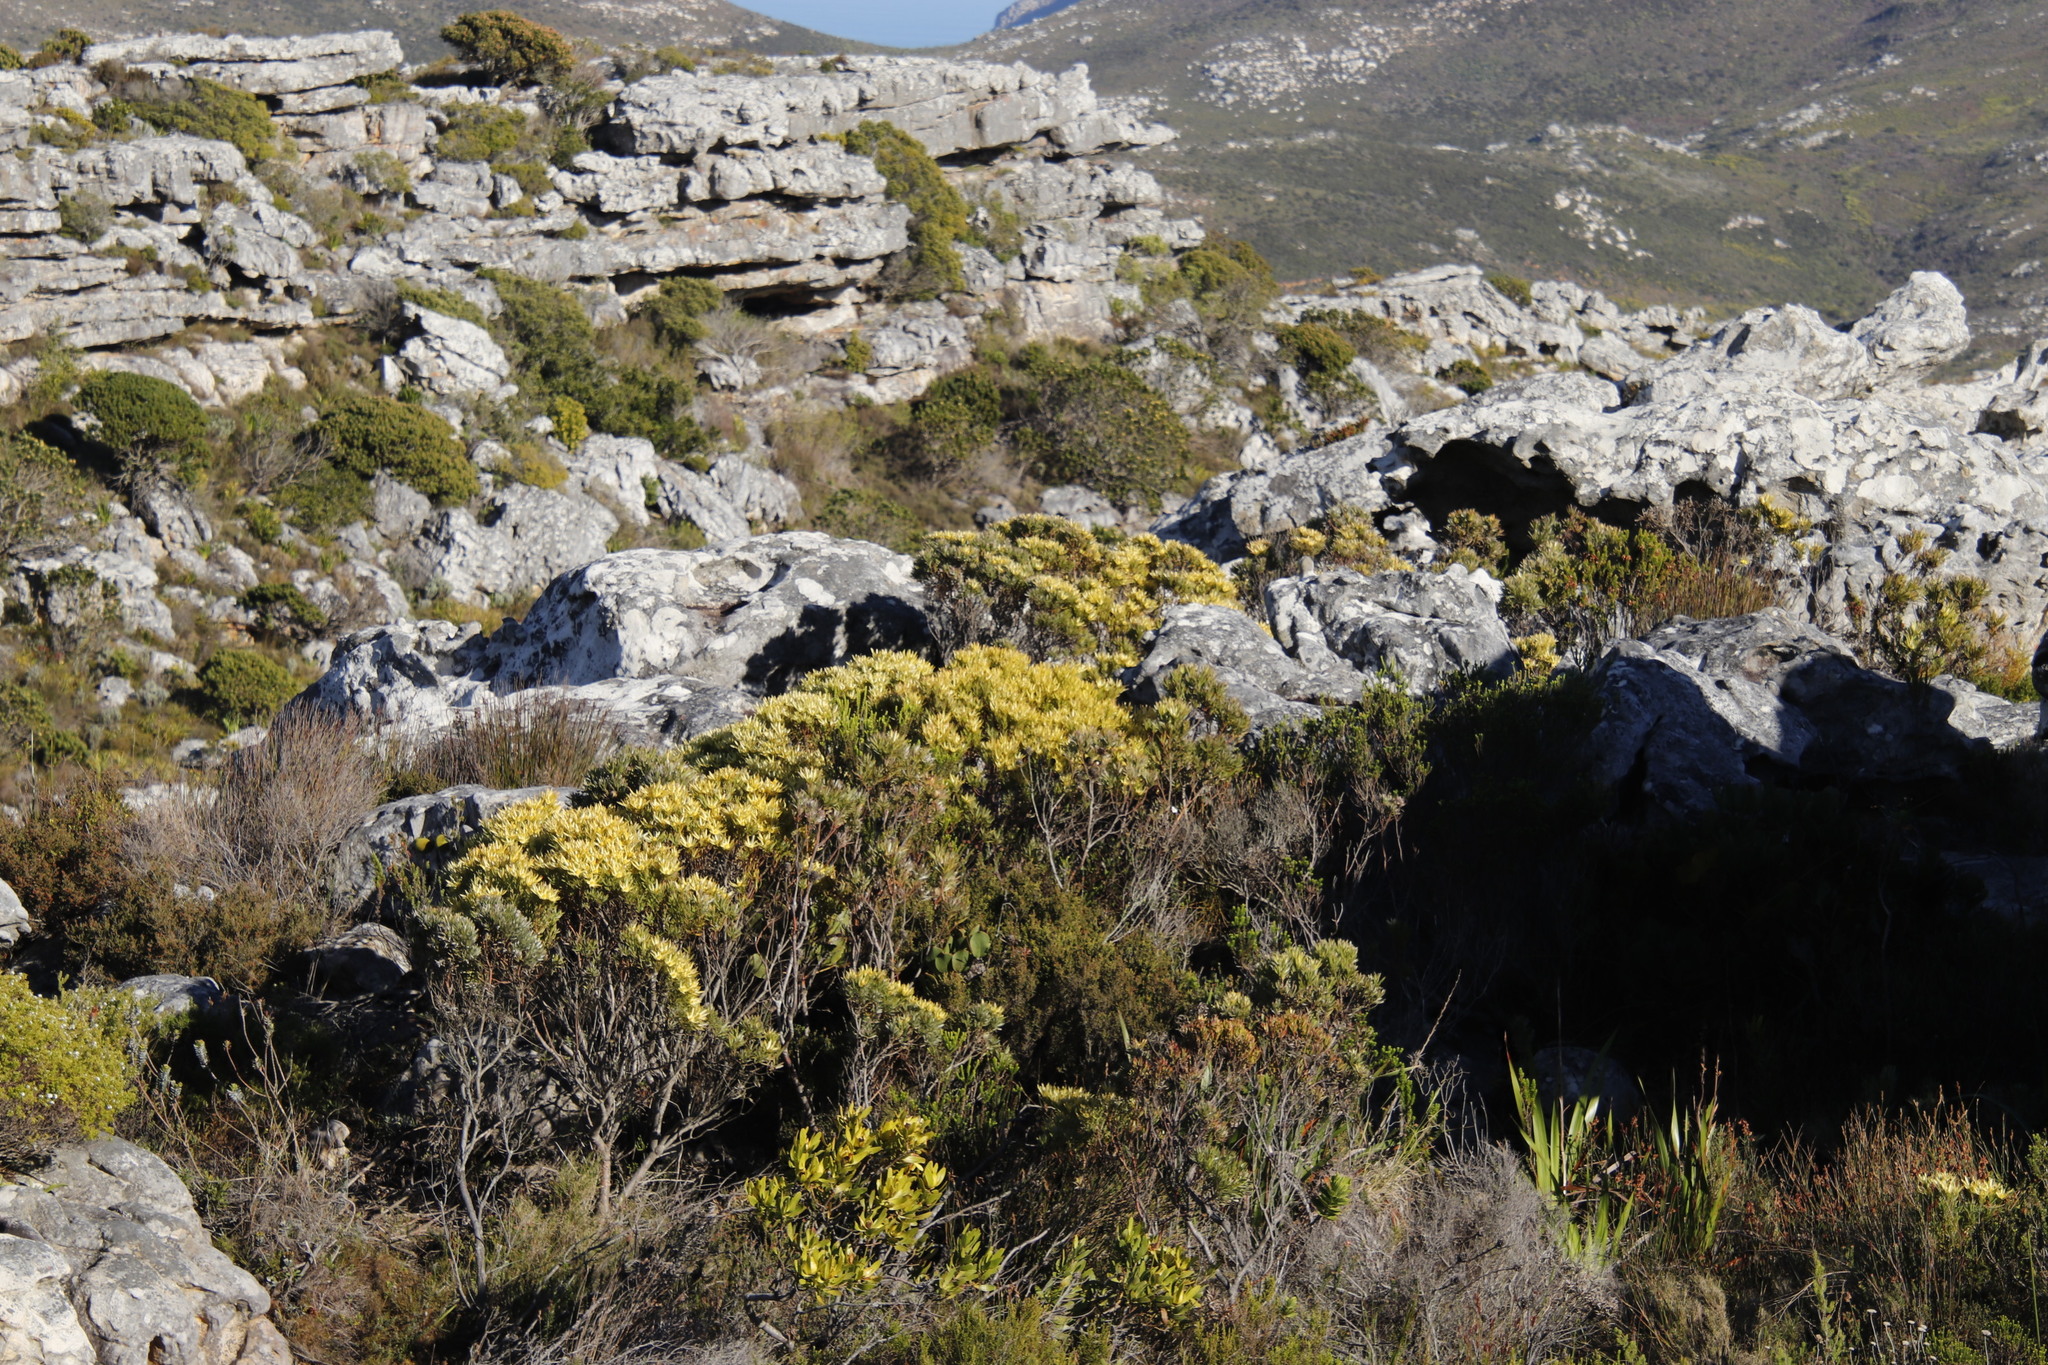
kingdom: Plantae
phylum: Tracheophyta
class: Magnoliopsida
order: Proteales
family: Proteaceae
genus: Leucadendron
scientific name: Leucadendron xanthoconus
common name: Sickle-leaf conebush
